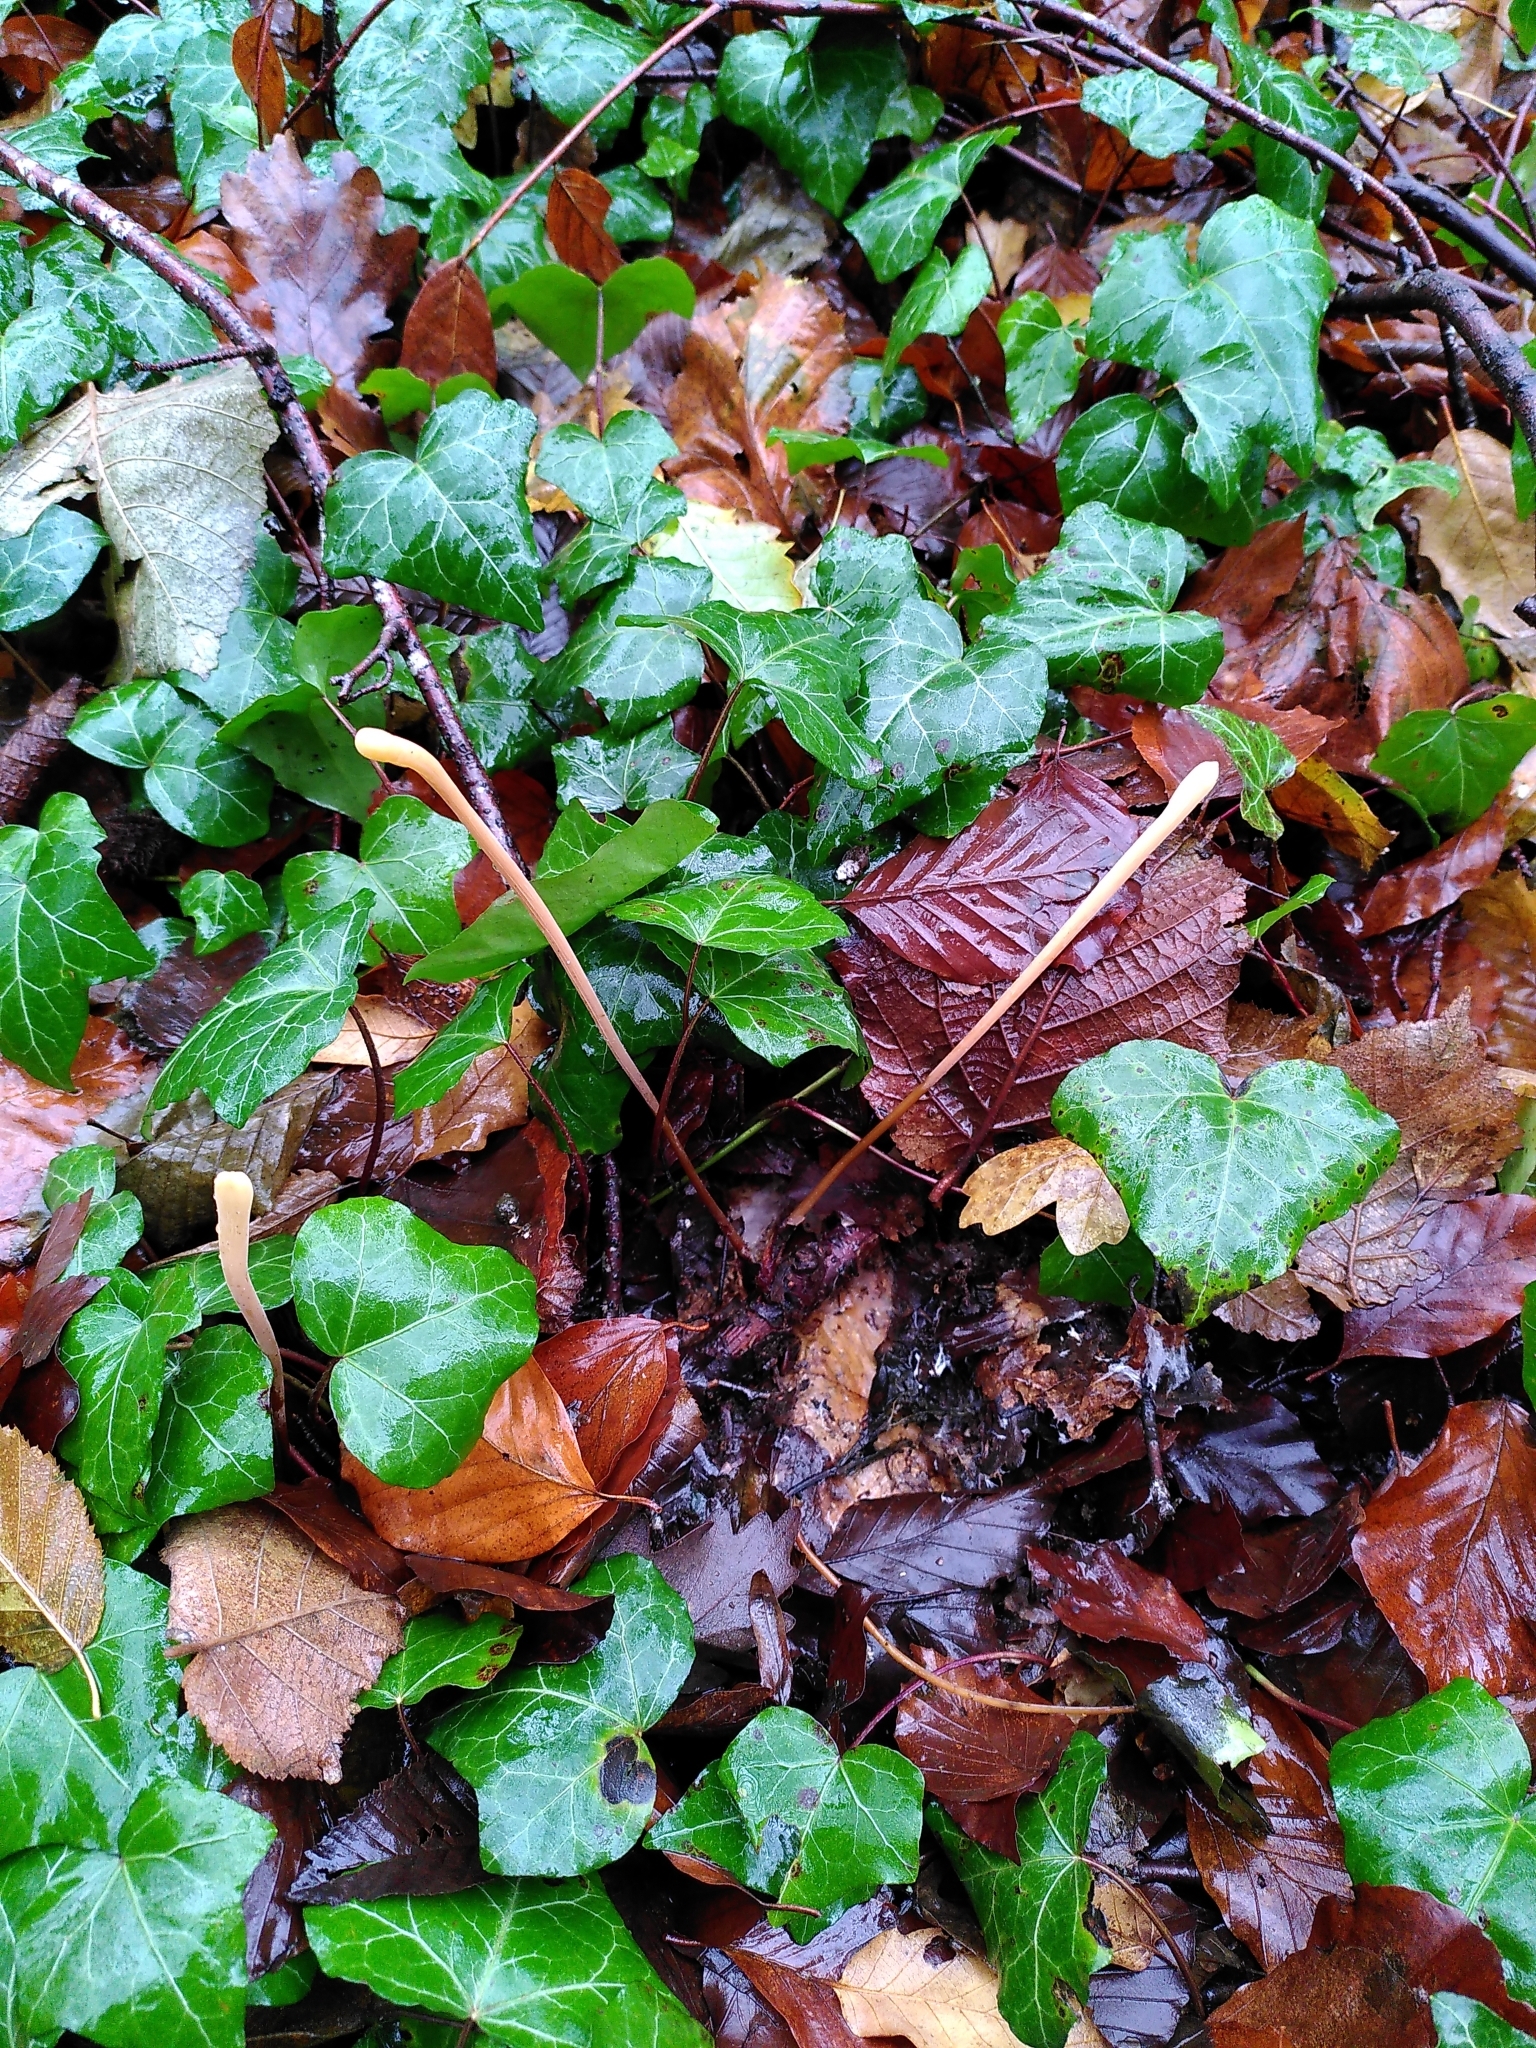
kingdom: Fungi
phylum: Basidiomycota
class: Agaricomycetes
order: Agaricales
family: Typhulaceae
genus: Typhula
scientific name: Typhula fistulosa
